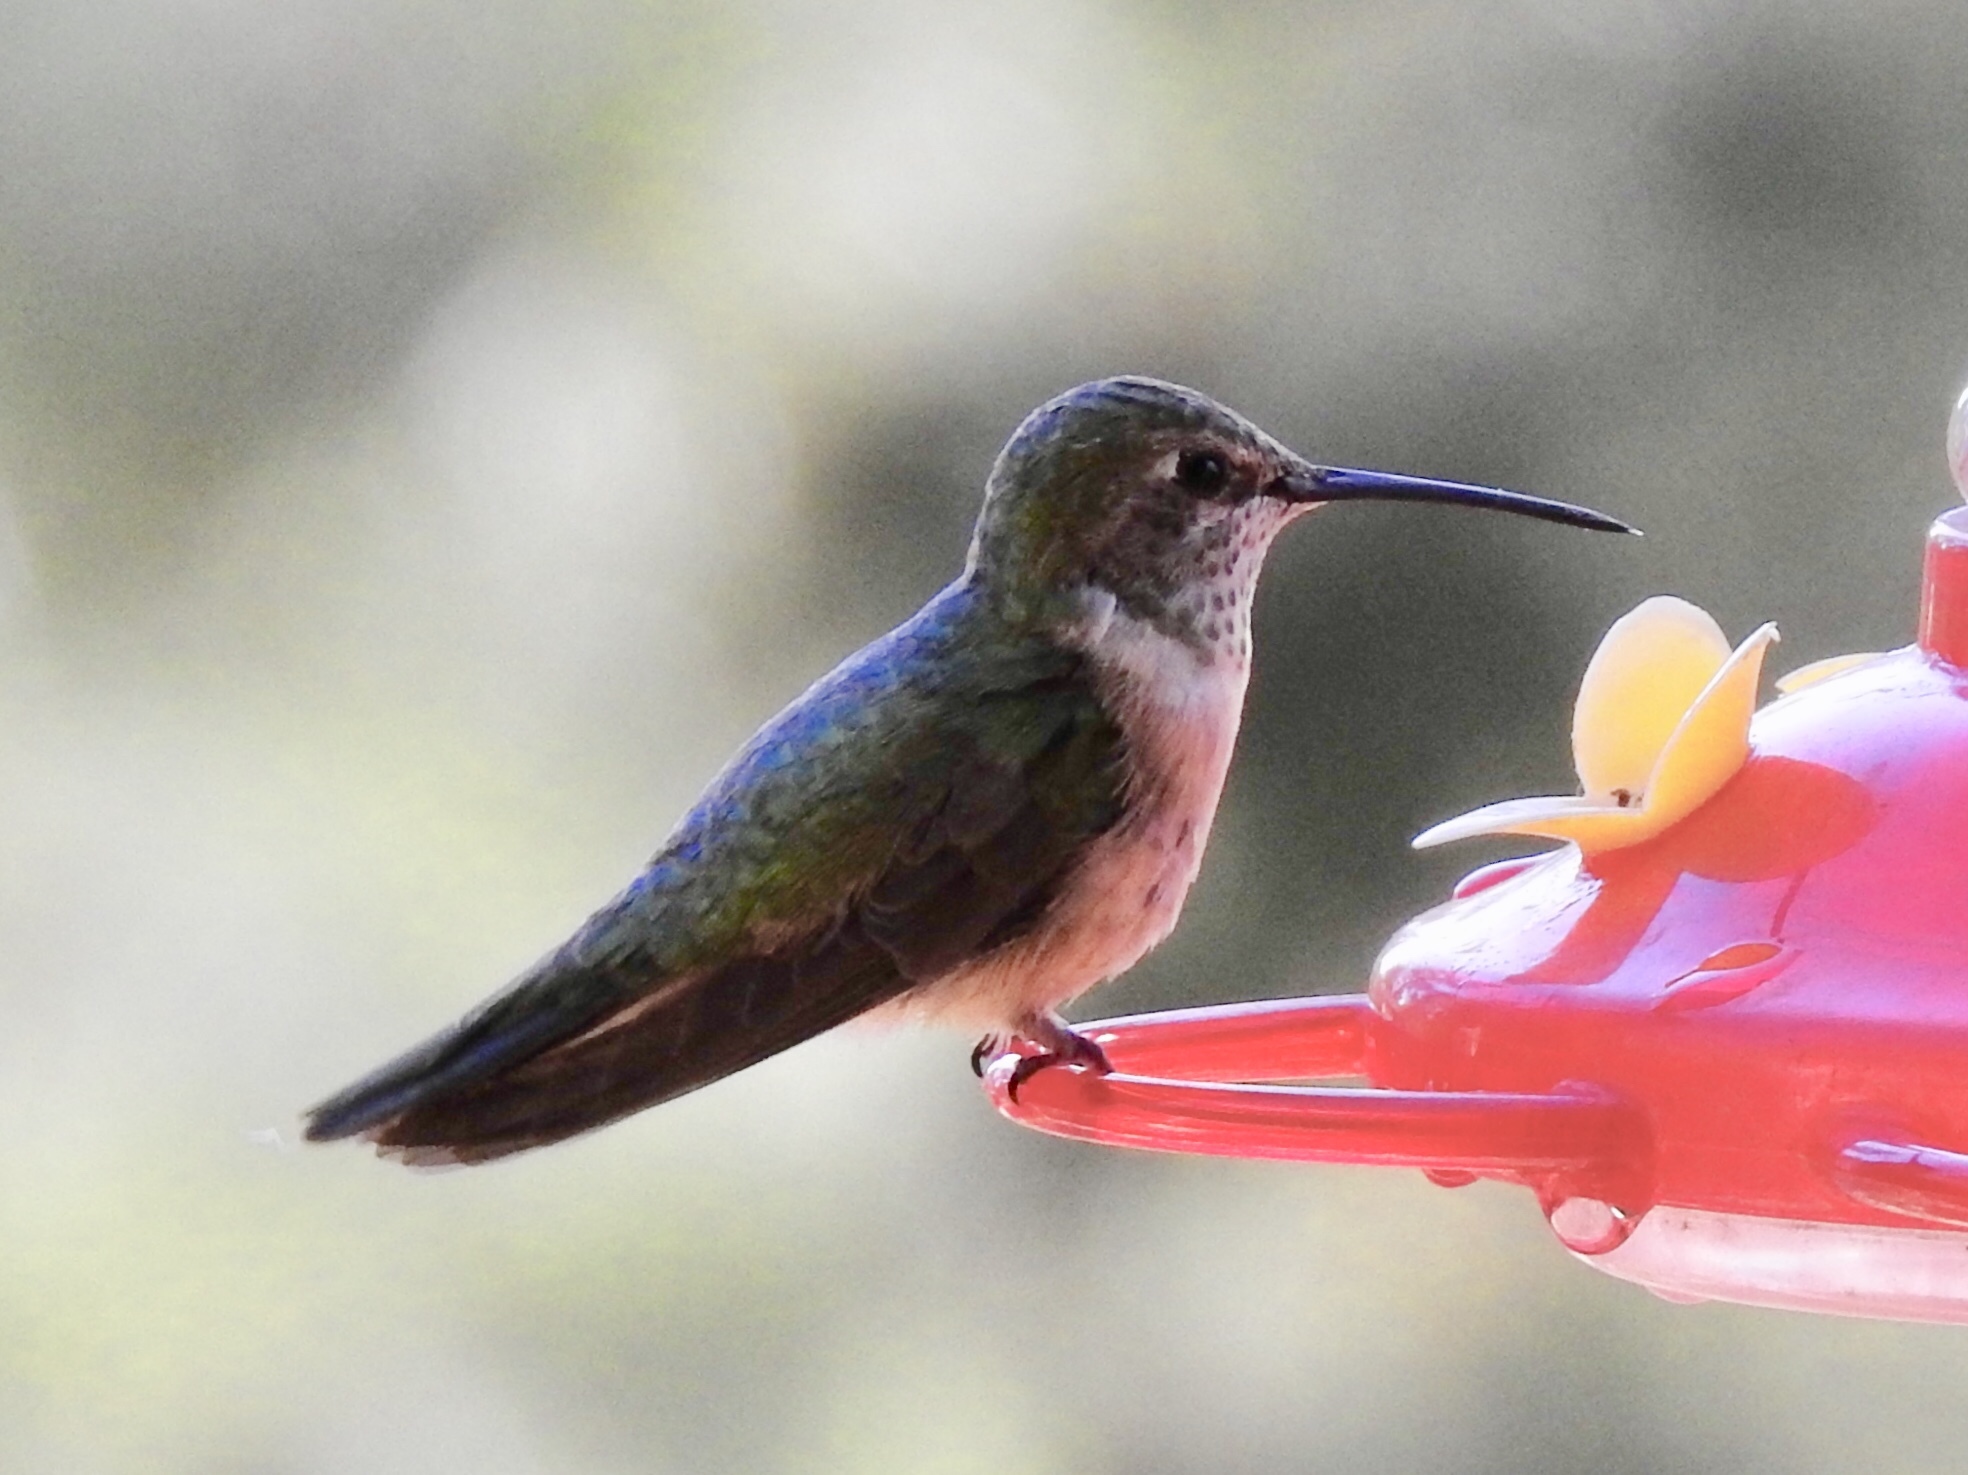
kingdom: Animalia
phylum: Chordata
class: Aves
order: Apodiformes
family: Trochilidae
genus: Selasphorus
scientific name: Selasphorus platycercus
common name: Broad-tailed hummingbird
